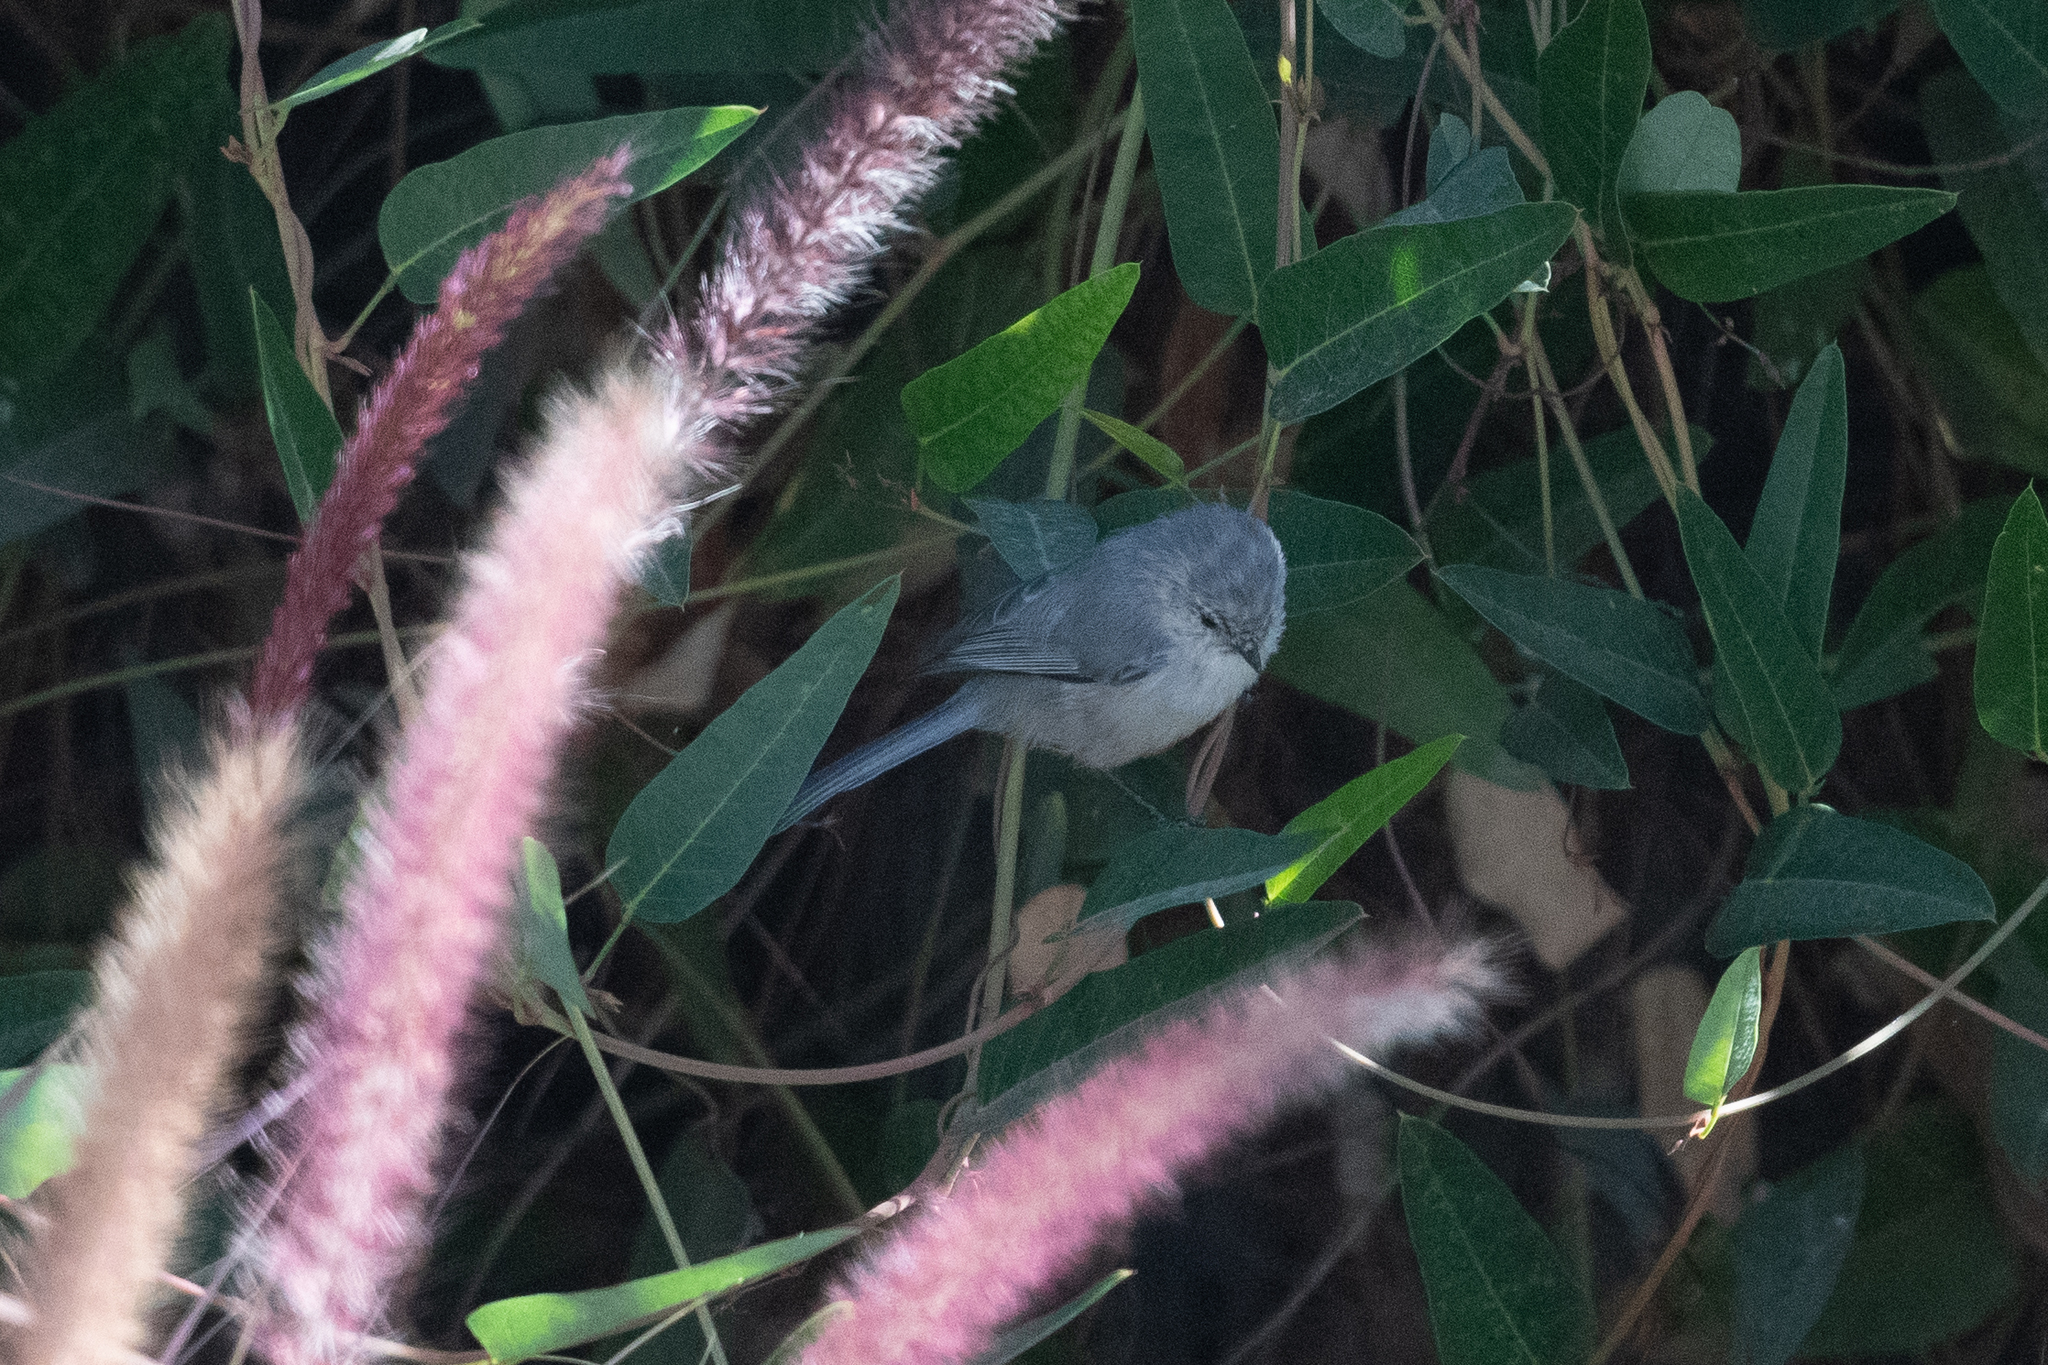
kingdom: Animalia
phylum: Chordata
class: Aves
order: Passeriformes
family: Aegithalidae
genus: Psaltriparus
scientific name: Psaltriparus minimus
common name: American bushtit
